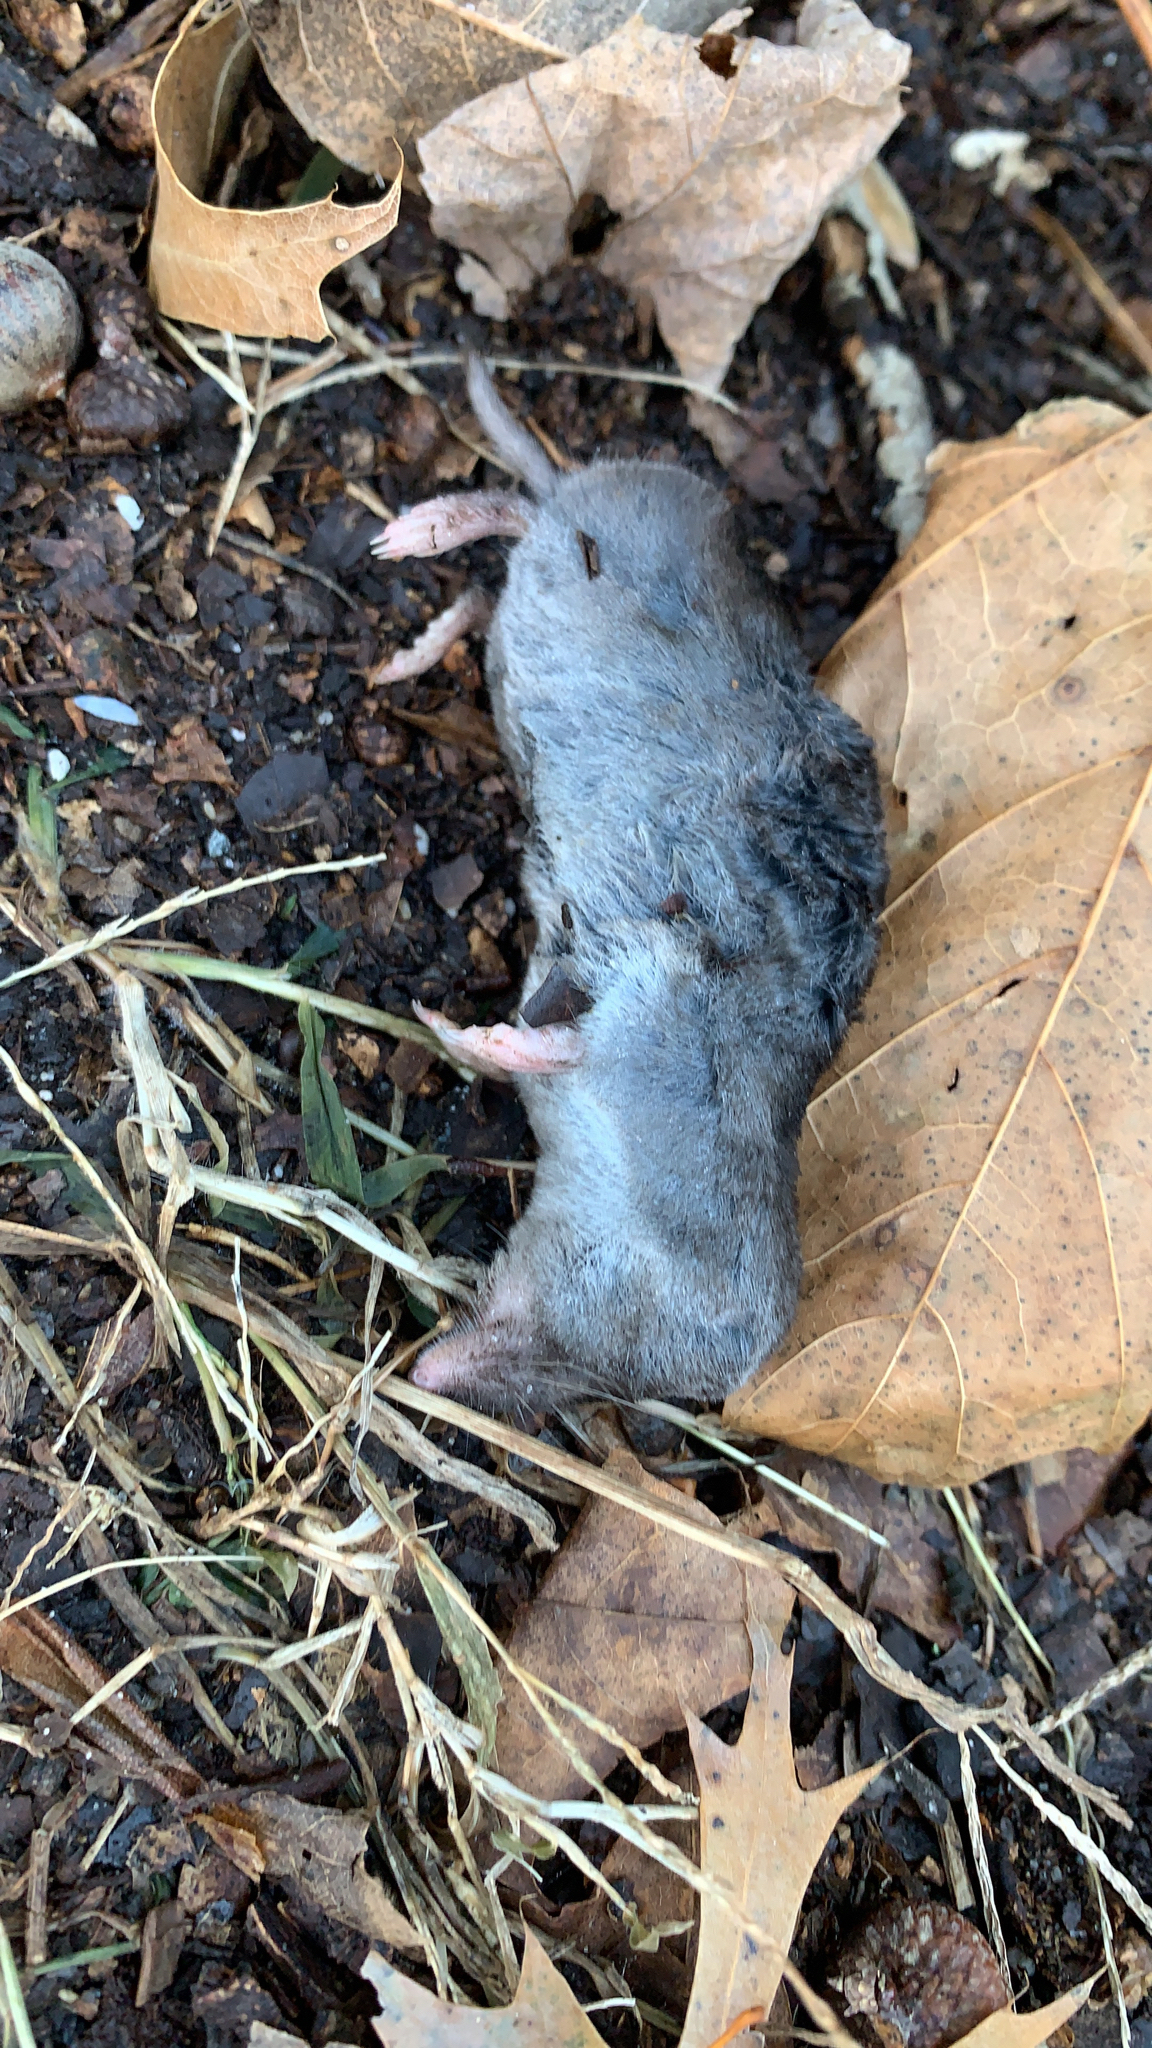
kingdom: Animalia
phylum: Chordata
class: Mammalia
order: Soricomorpha
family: Soricidae
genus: Blarina
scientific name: Blarina brevicauda
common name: Northern short-tailed shrew
